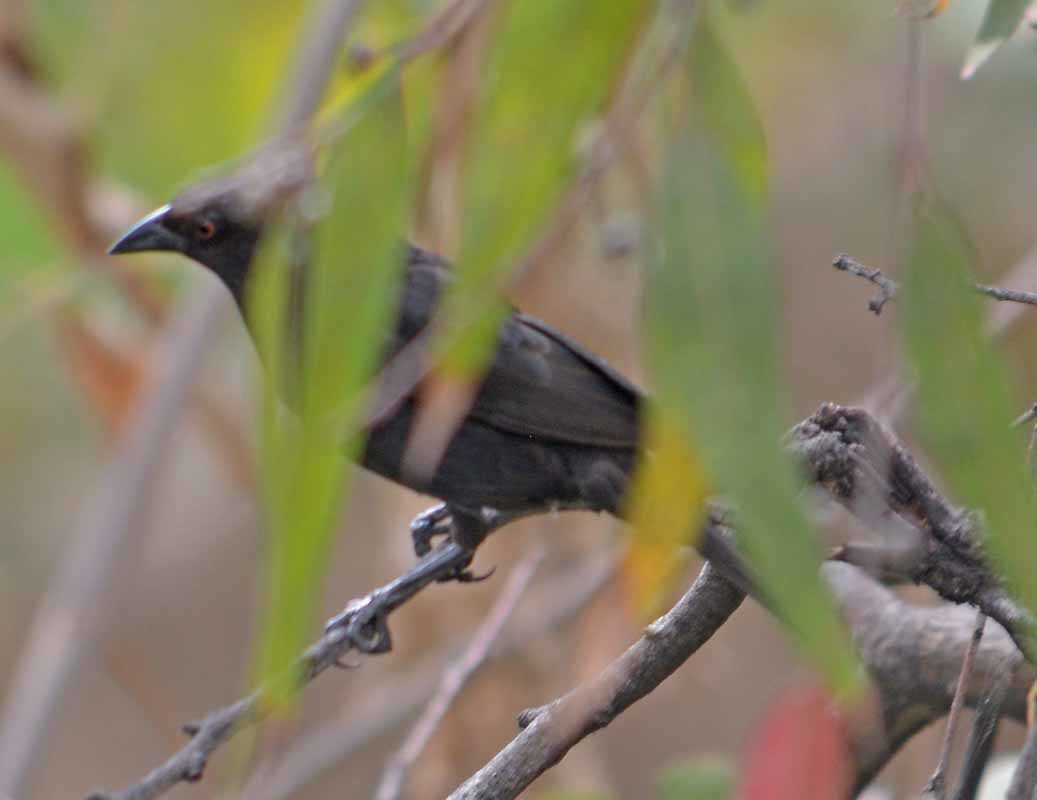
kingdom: Animalia
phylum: Chordata
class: Aves
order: Passeriformes
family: Icteridae
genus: Molothrus
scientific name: Molothrus aeneus
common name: Bronzed cowbird
